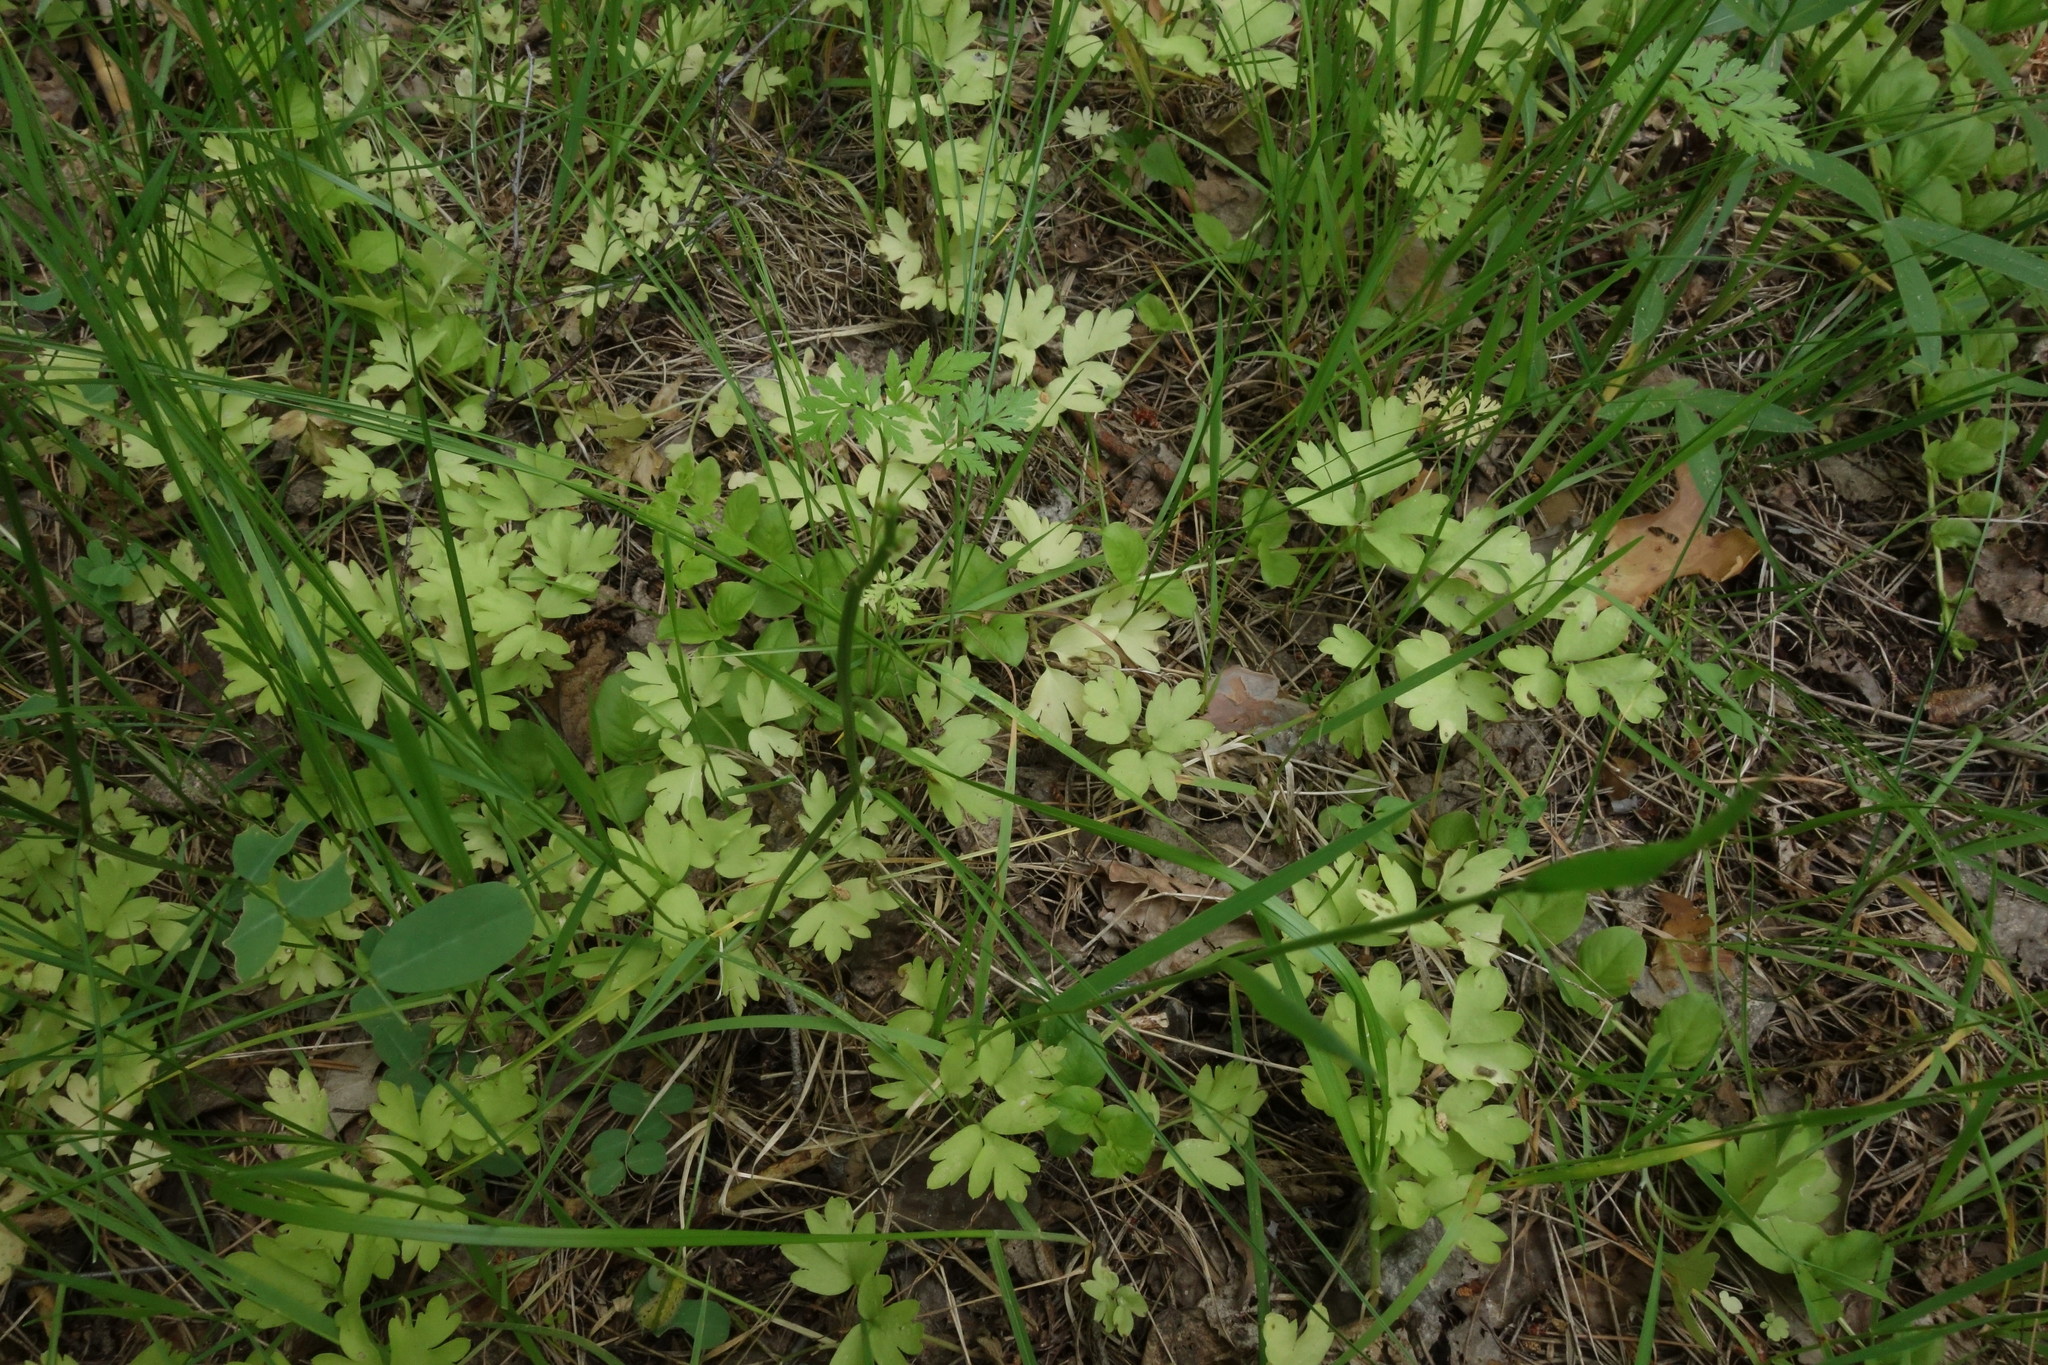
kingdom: Plantae
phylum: Tracheophyta
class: Magnoliopsida
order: Dipsacales
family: Viburnaceae
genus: Adoxa
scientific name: Adoxa moschatellina
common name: Moschatel
